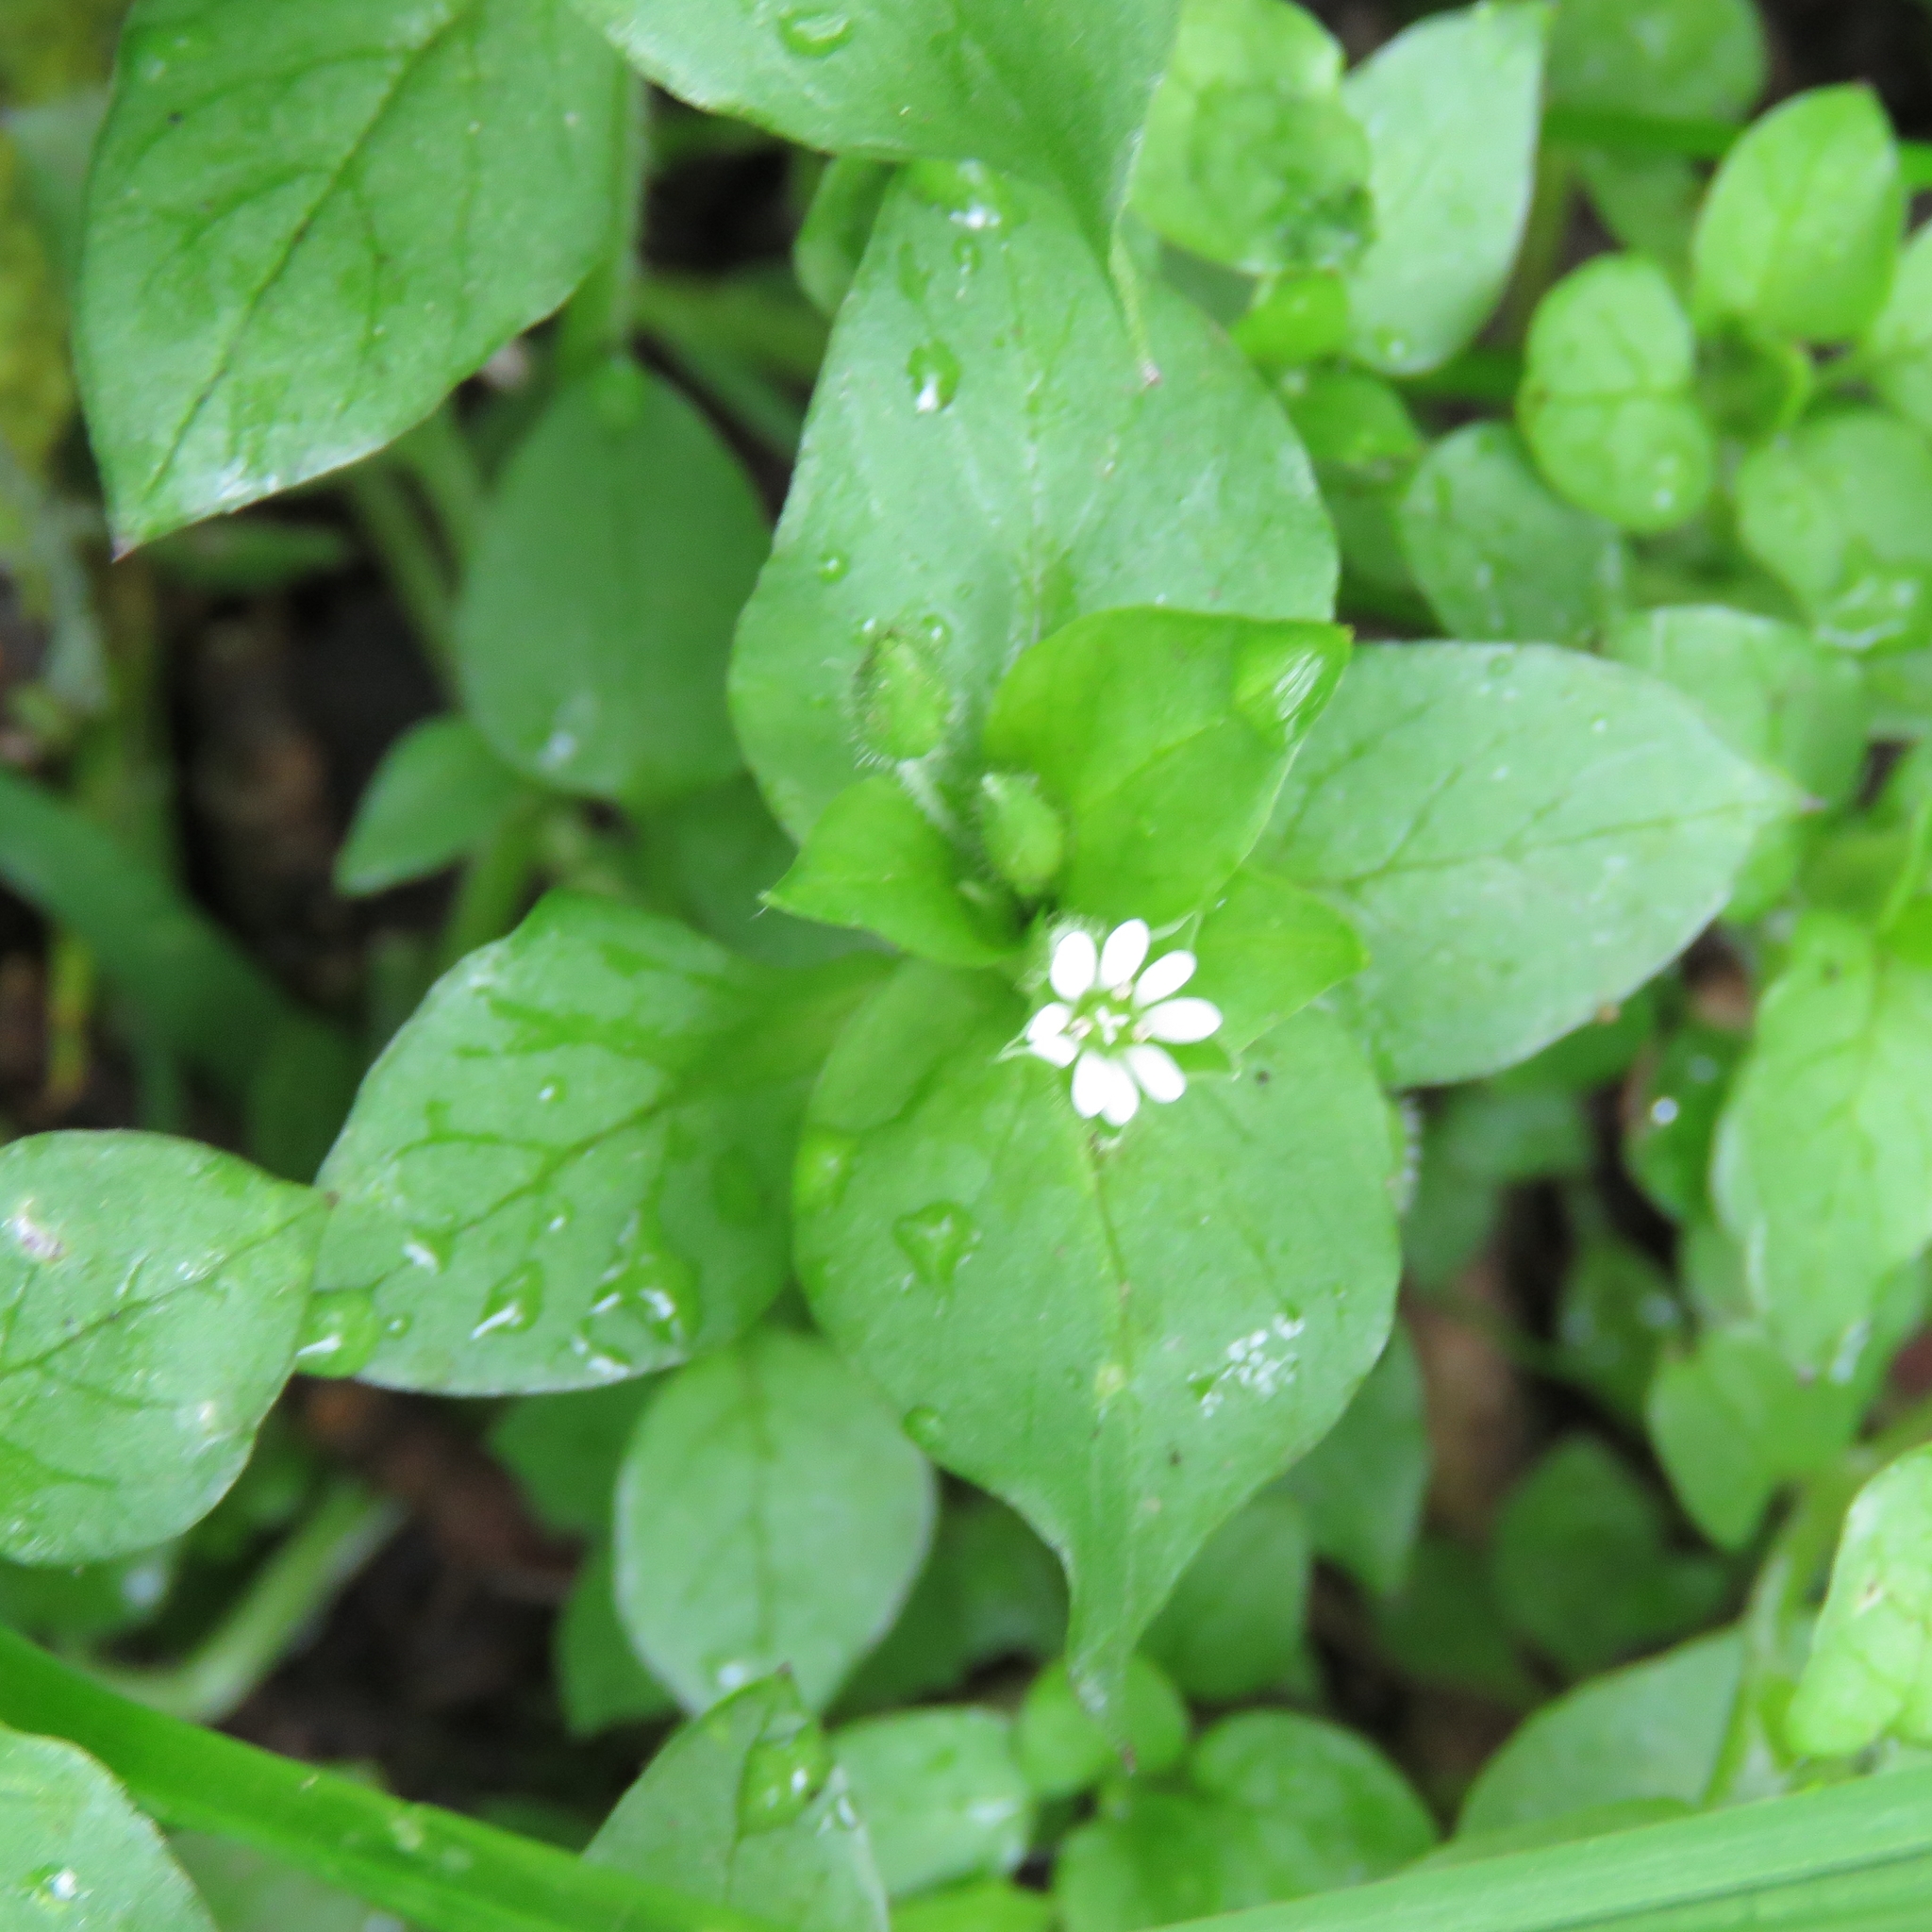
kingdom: Plantae
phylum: Tracheophyta
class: Magnoliopsida
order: Caryophyllales
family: Caryophyllaceae
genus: Stellaria
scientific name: Stellaria media
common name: Common chickweed
